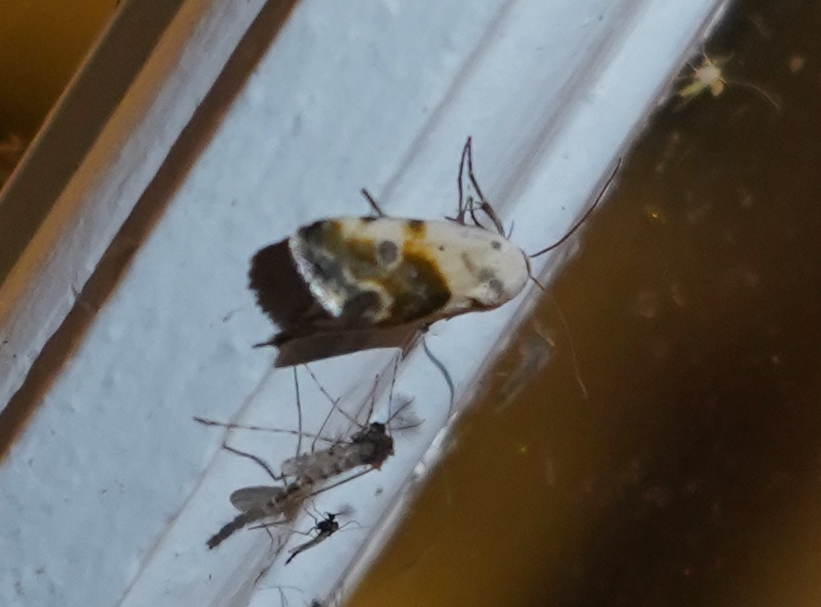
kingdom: Animalia
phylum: Arthropoda
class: Insecta
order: Lepidoptera
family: Noctuidae
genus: Acontia
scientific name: Acontia candefacta
